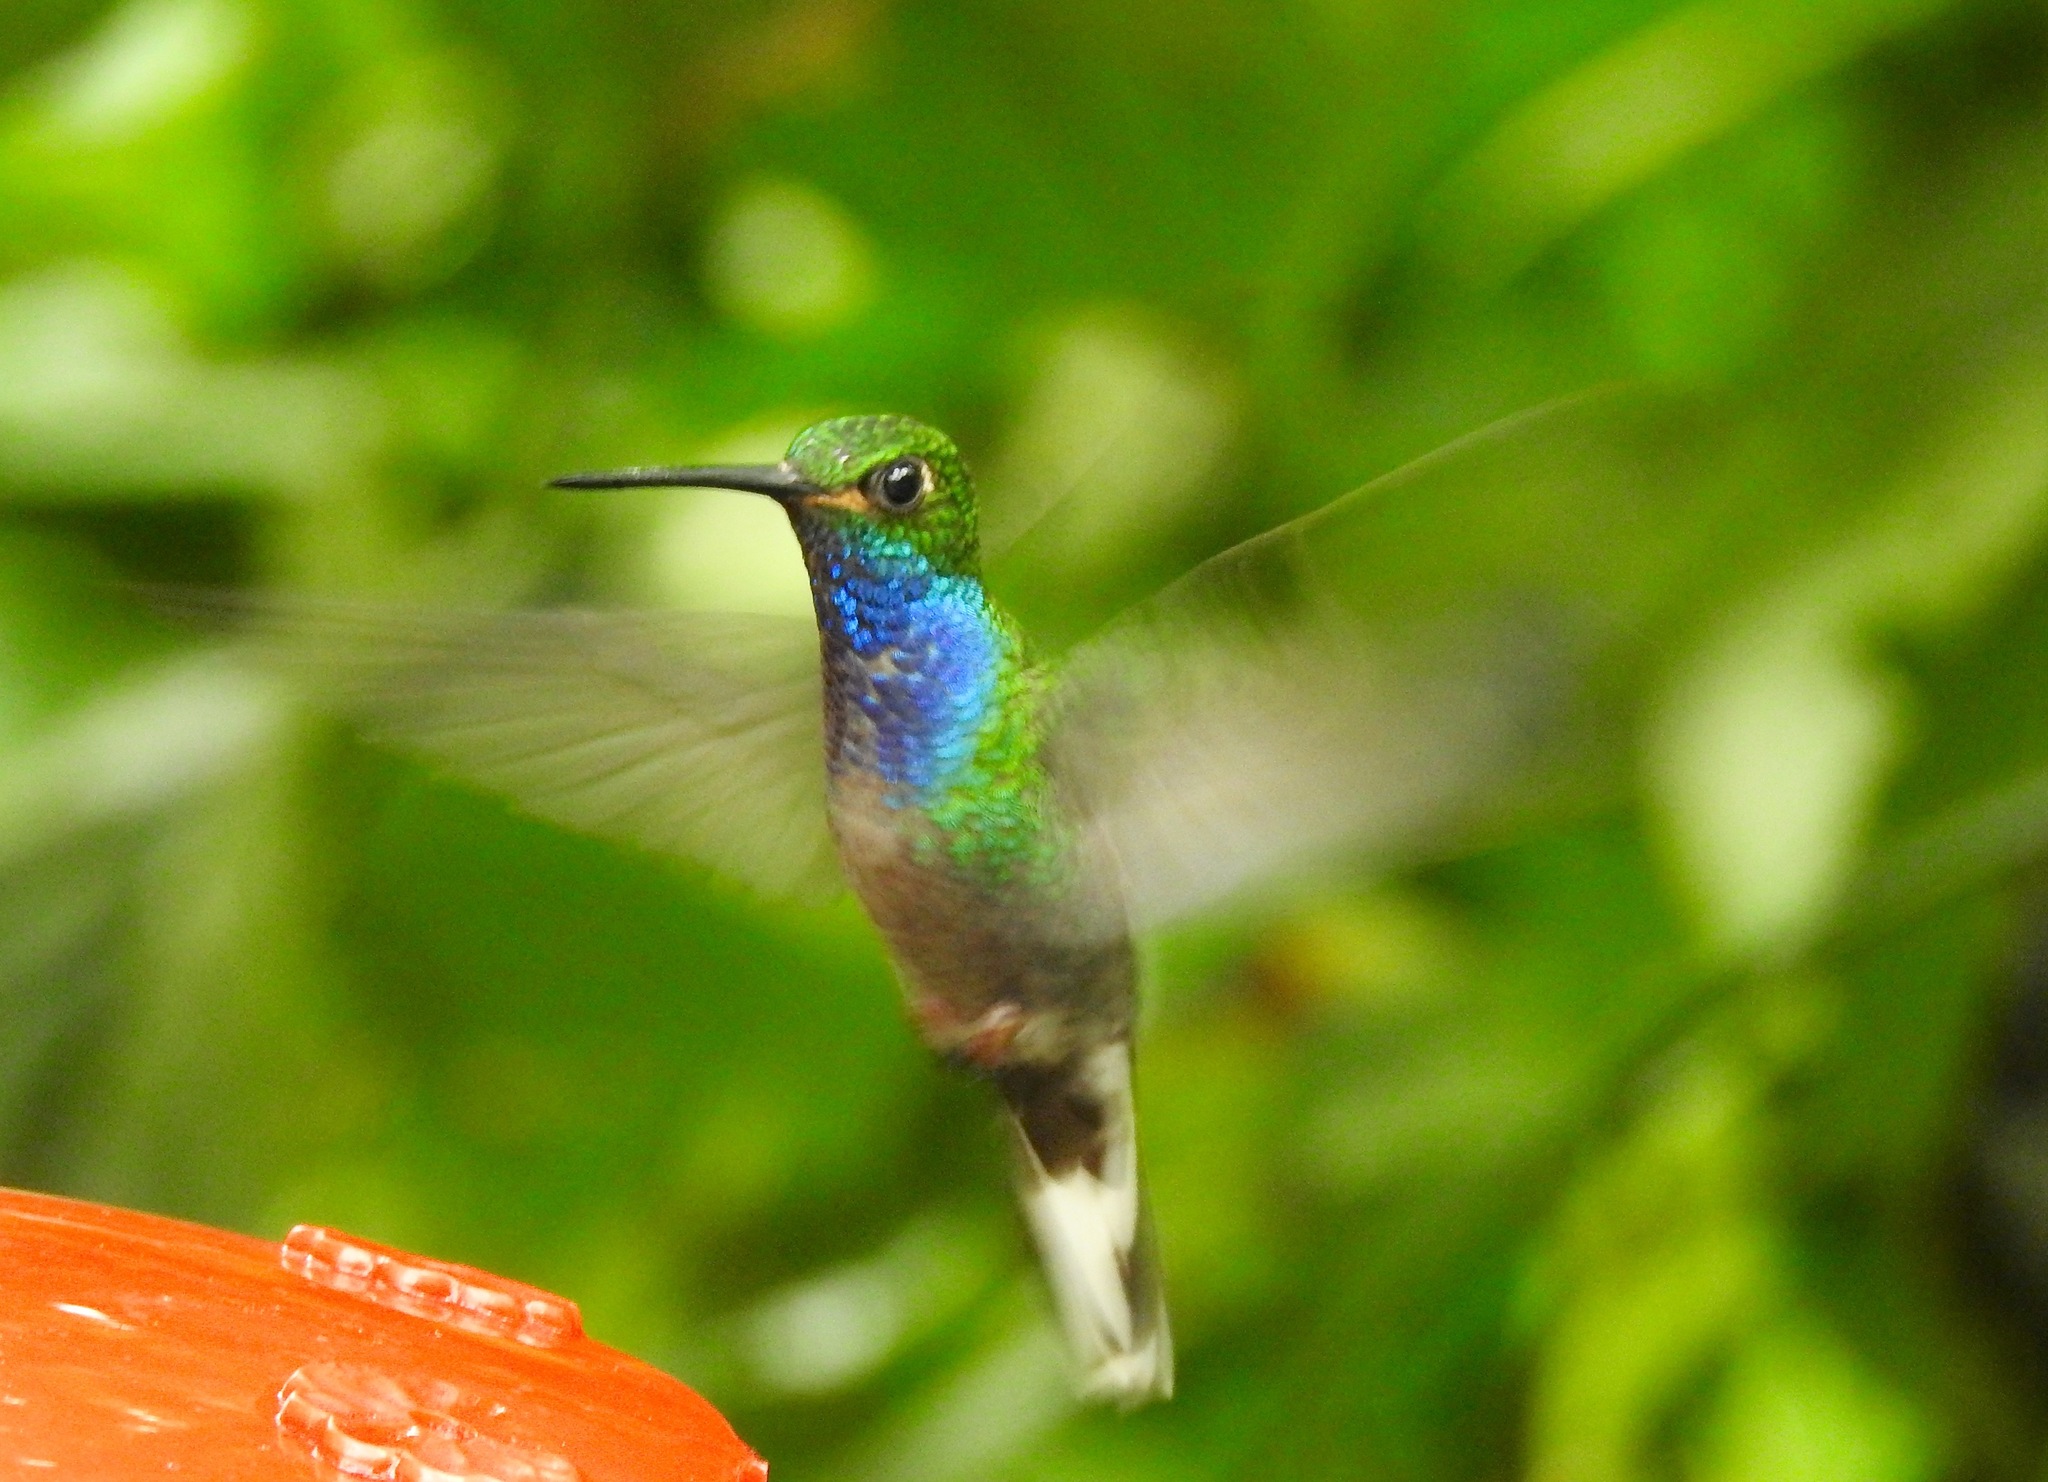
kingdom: Animalia
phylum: Chordata
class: Aves
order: Apodiformes
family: Trochilidae
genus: Urochroa
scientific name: Urochroa leucura
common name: Green-backed hillstar
